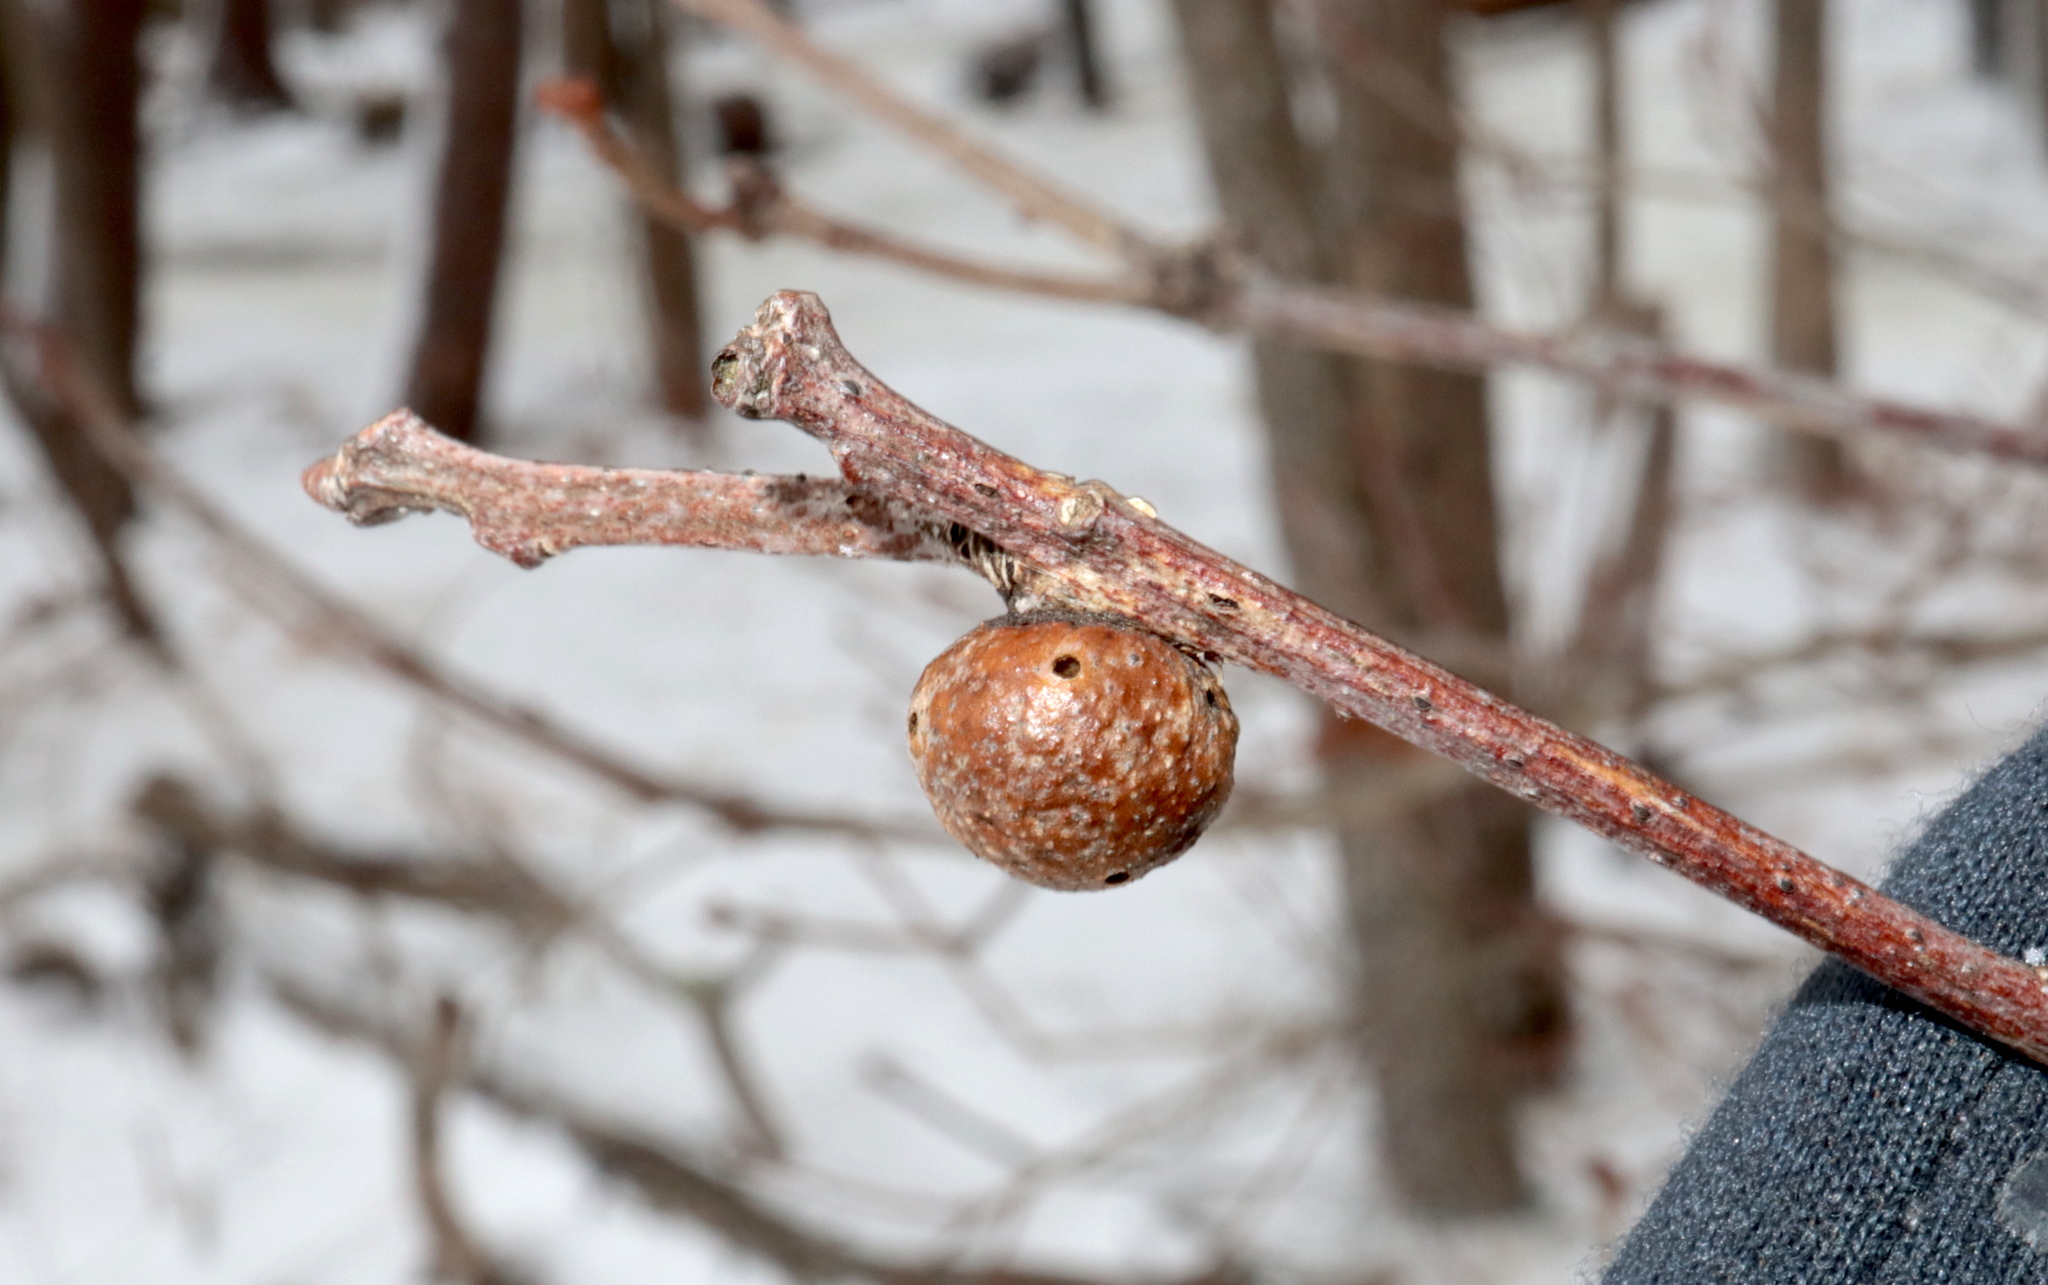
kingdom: Animalia
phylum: Arthropoda
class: Insecta
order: Hymenoptera
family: Cynipidae
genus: Disholcaspis
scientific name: Disholcaspis quercusglobulus
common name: Round bullet gall wasp
